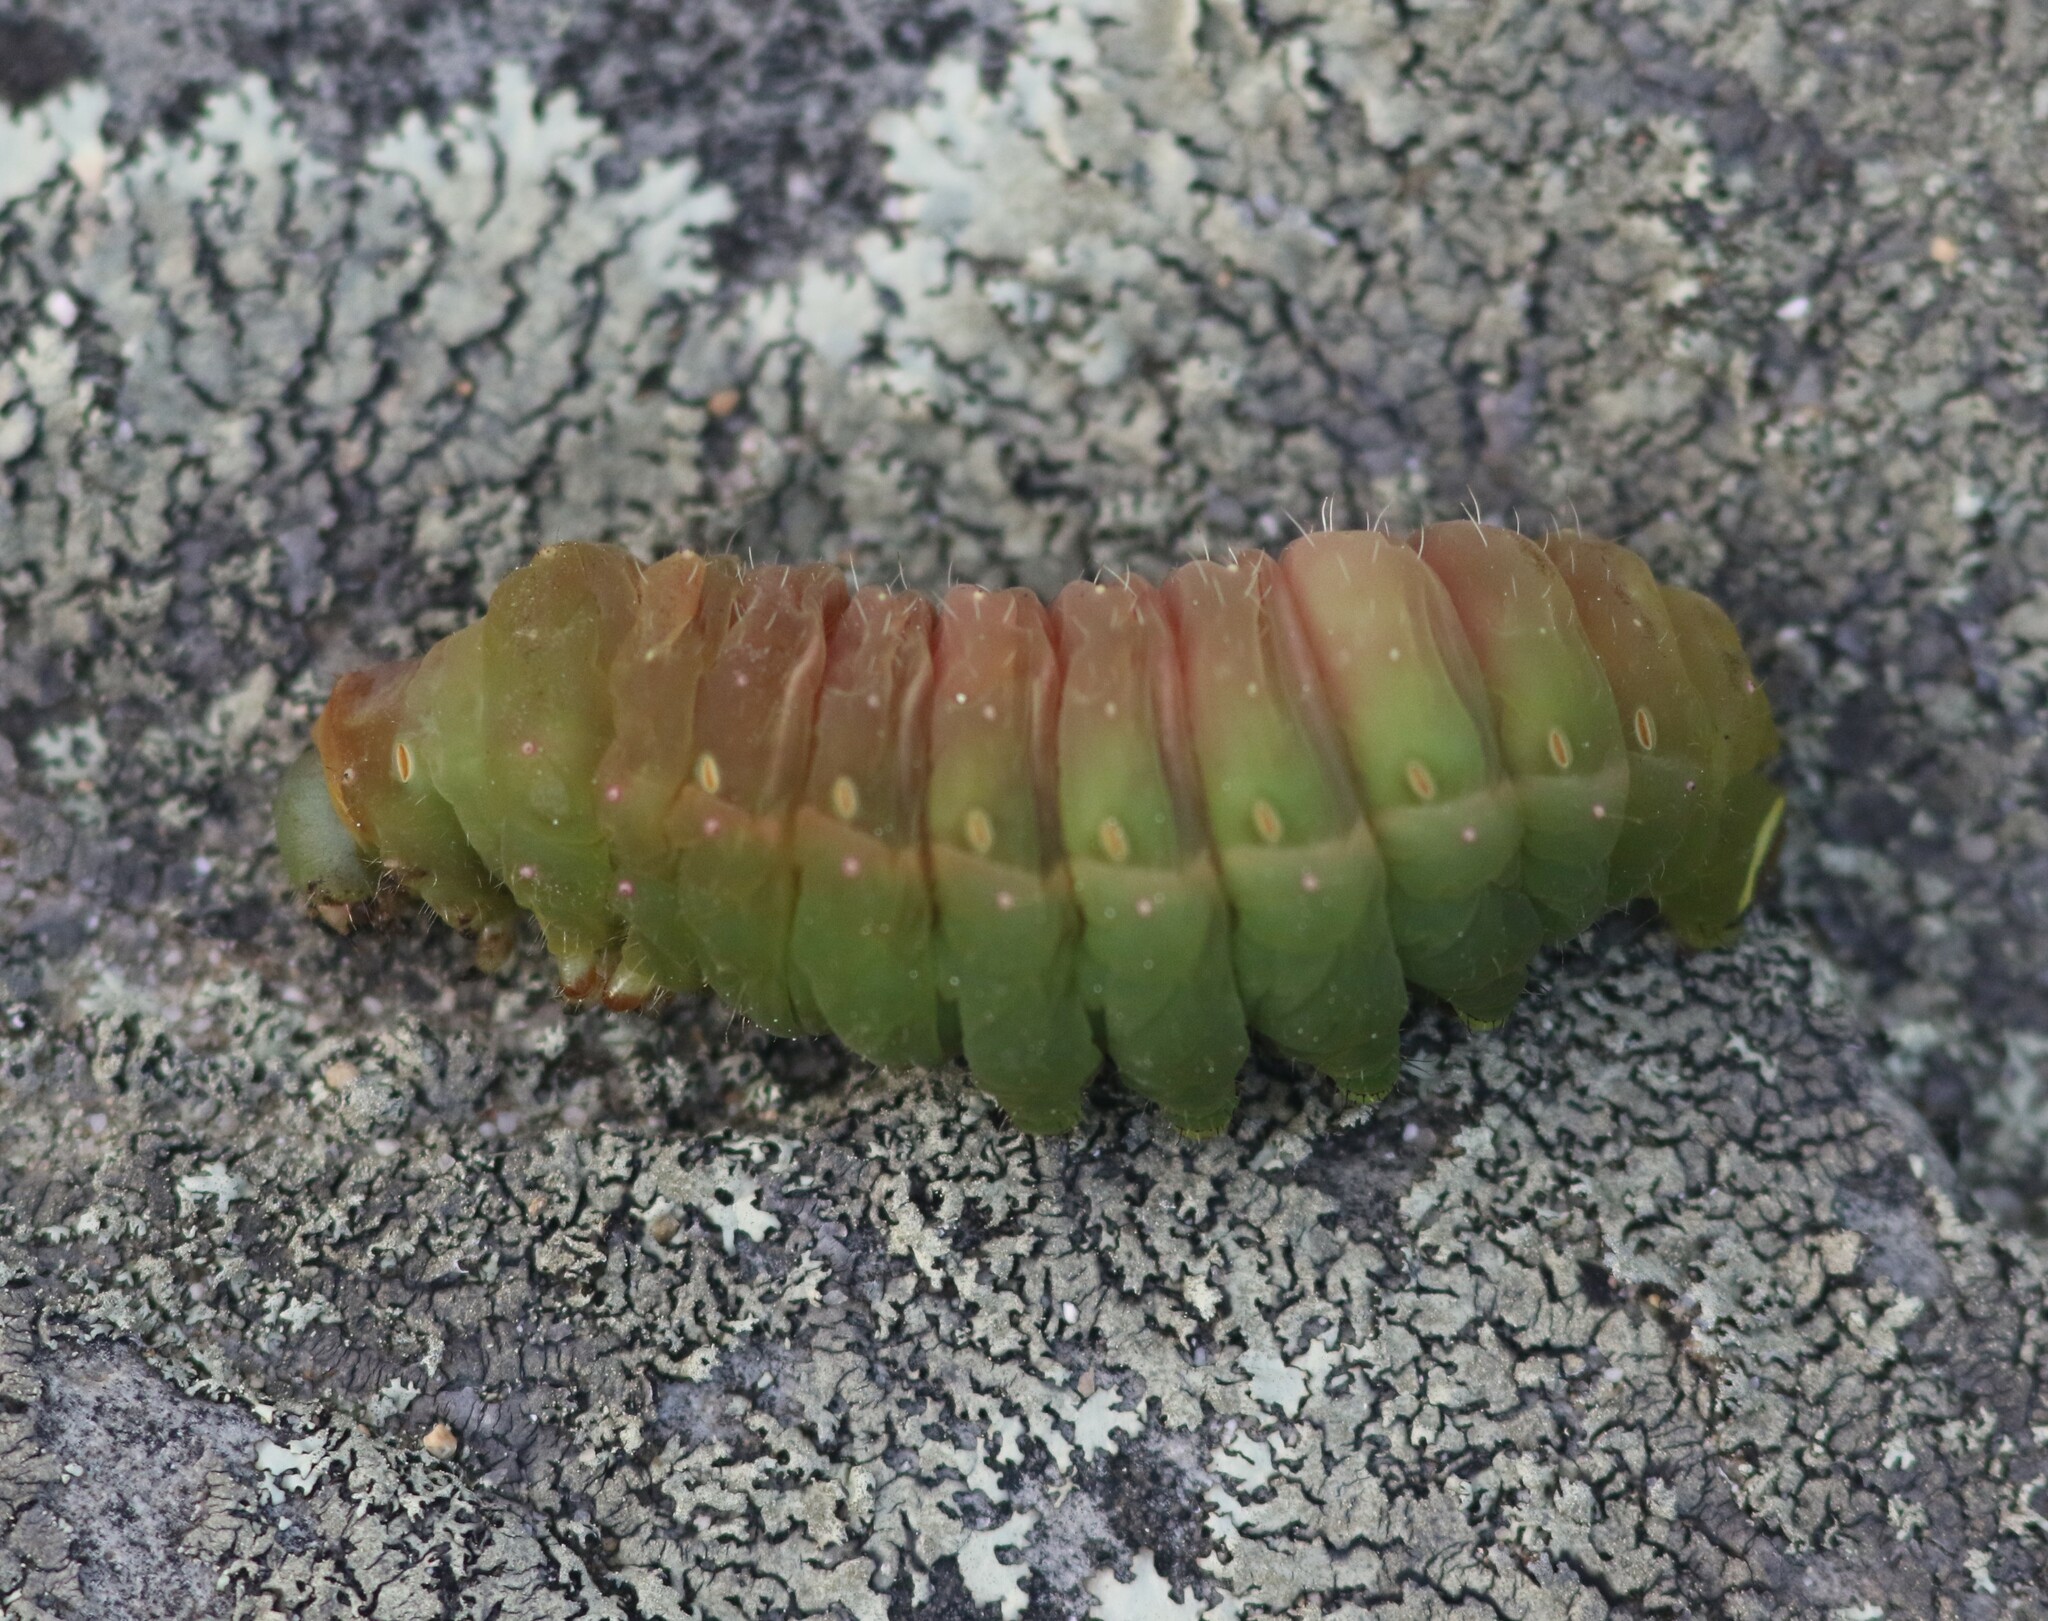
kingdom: Animalia
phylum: Arthropoda
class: Insecta
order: Lepidoptera
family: Saturniidae
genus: Actias
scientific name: Actias luna
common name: Luna moth
